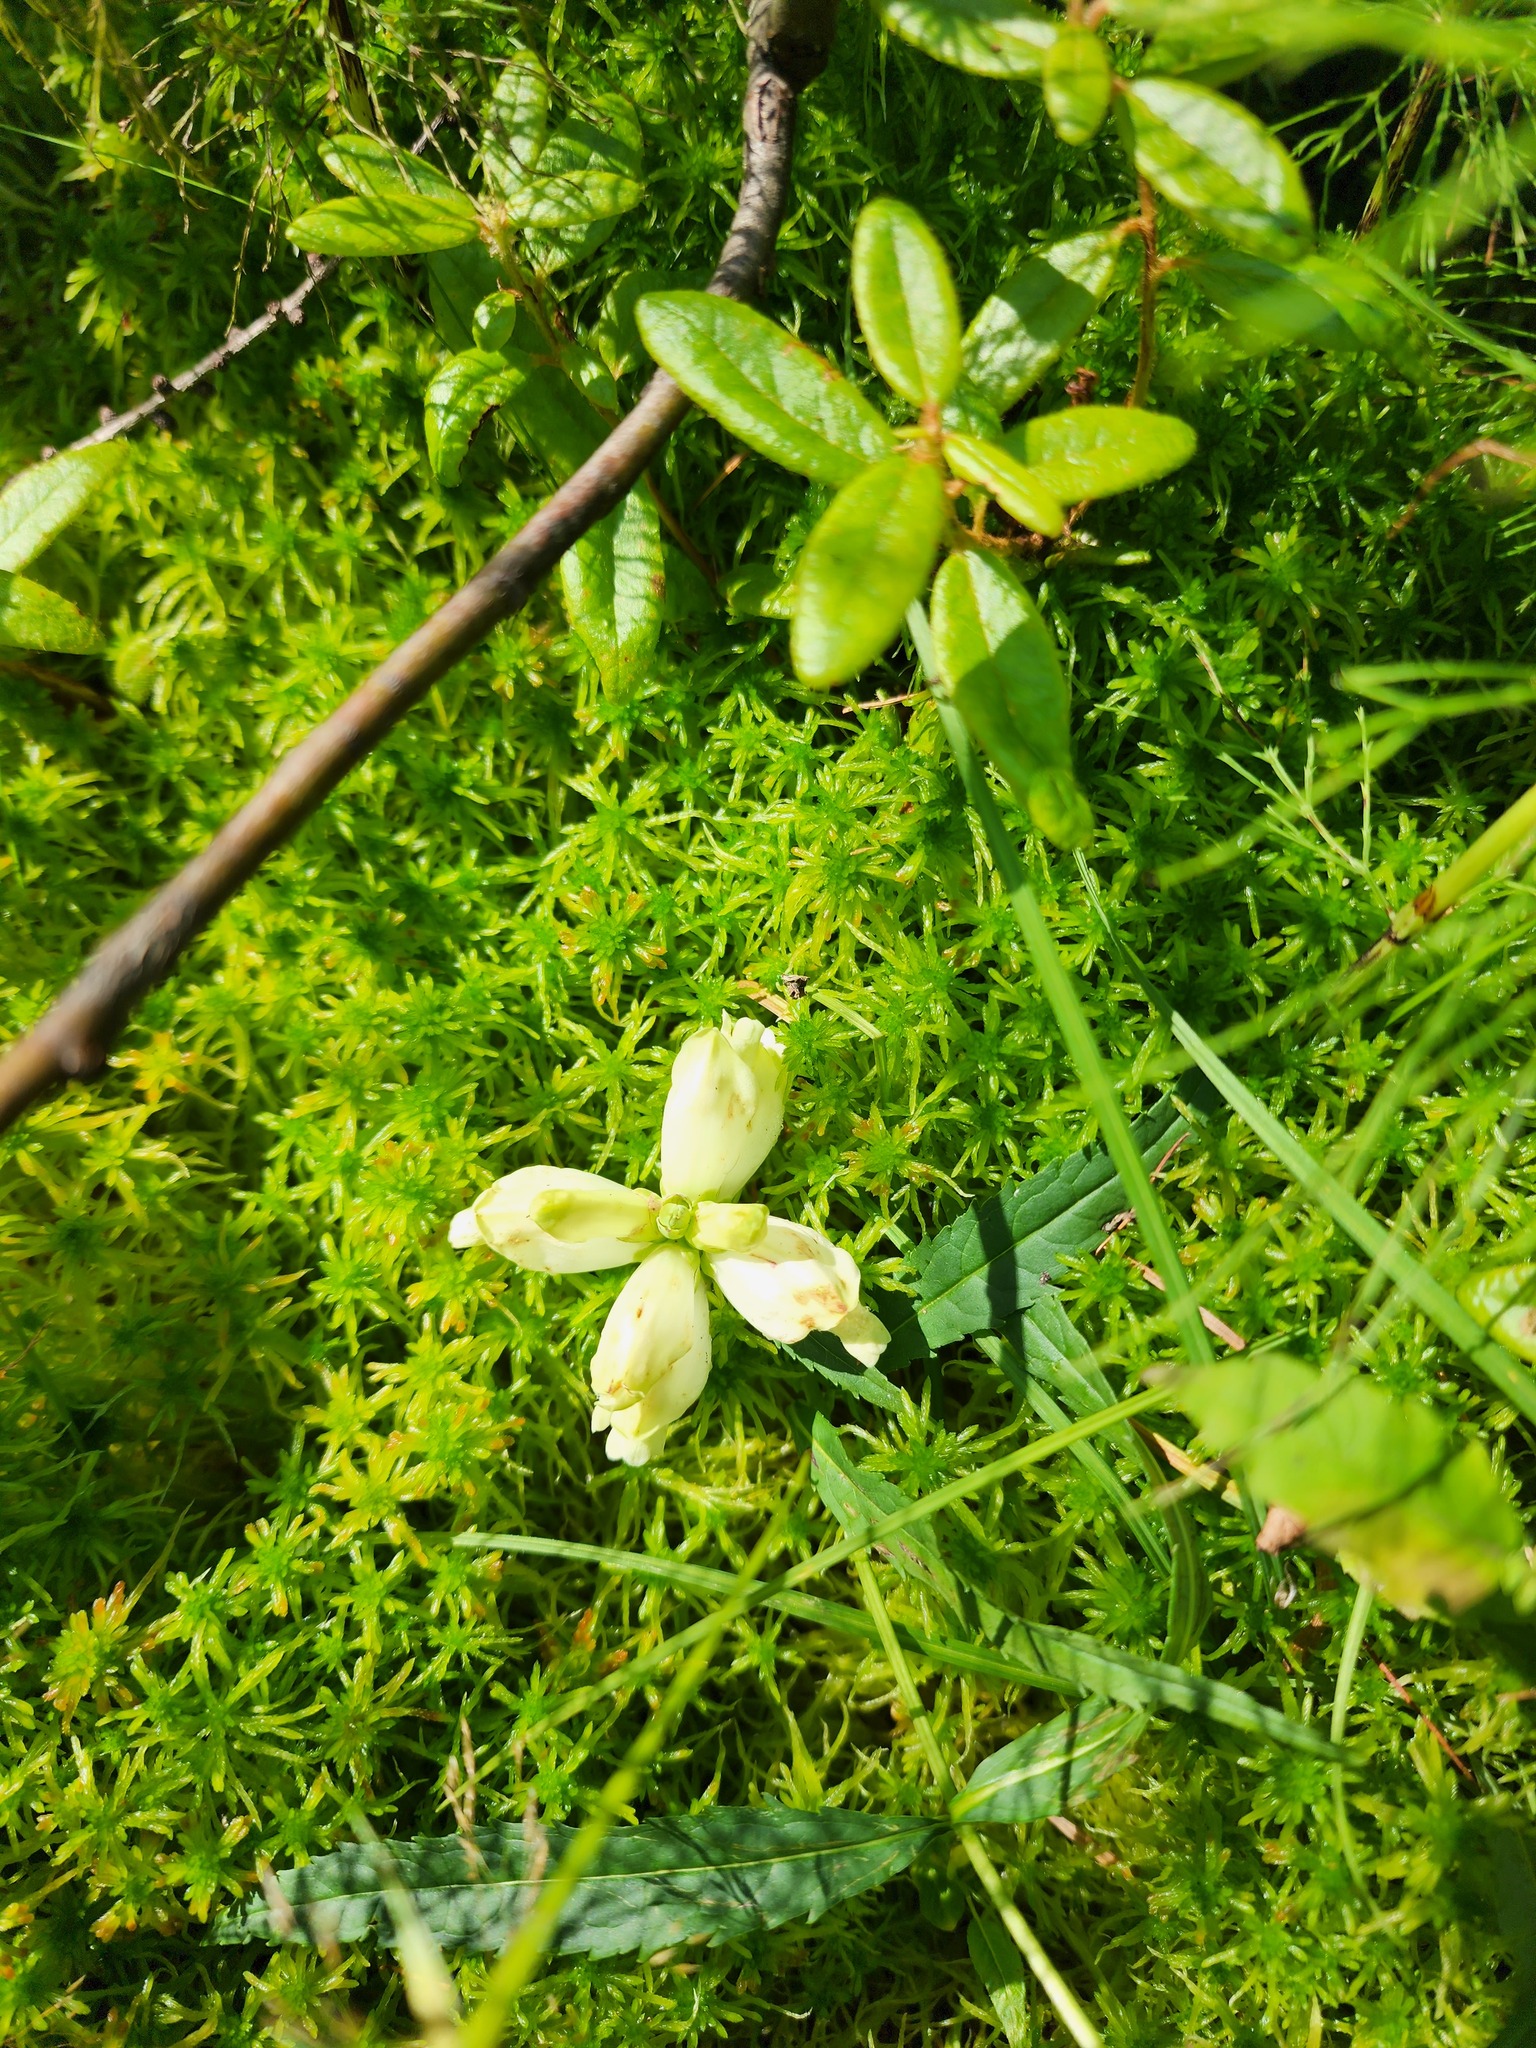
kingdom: Plantae
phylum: Tracheophyta
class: Magnoliopsida
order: Lamiales
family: Plantaginaceae
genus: Chelone
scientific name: Chelone glabra
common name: Snakehead
